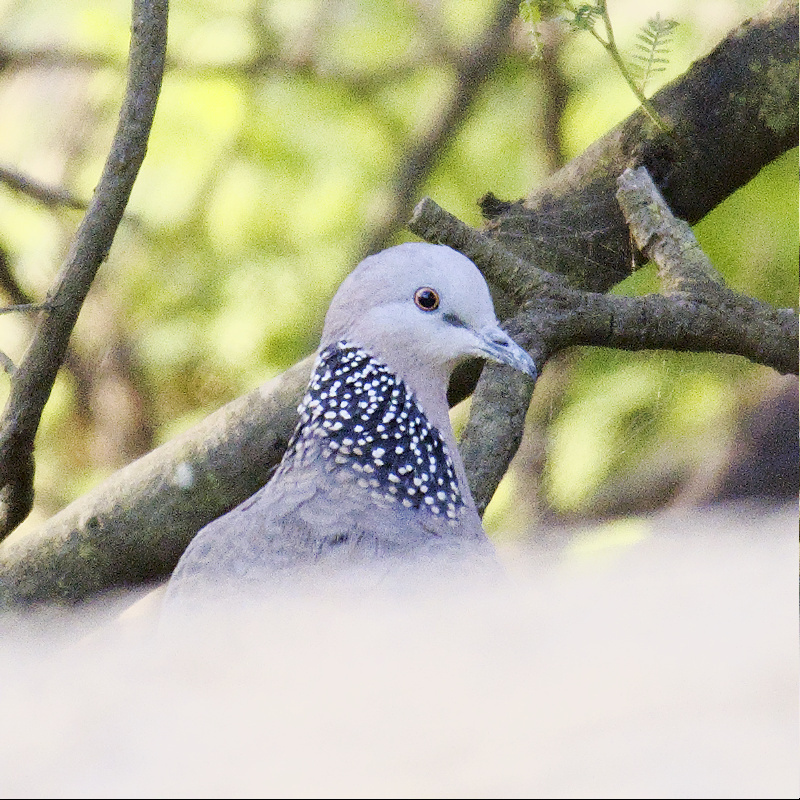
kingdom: Animalia
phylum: Chordata
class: Aves
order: Columbiformes
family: Columbidae
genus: Spilopelia
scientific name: Spilopelia chinensis
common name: Spotted dove
